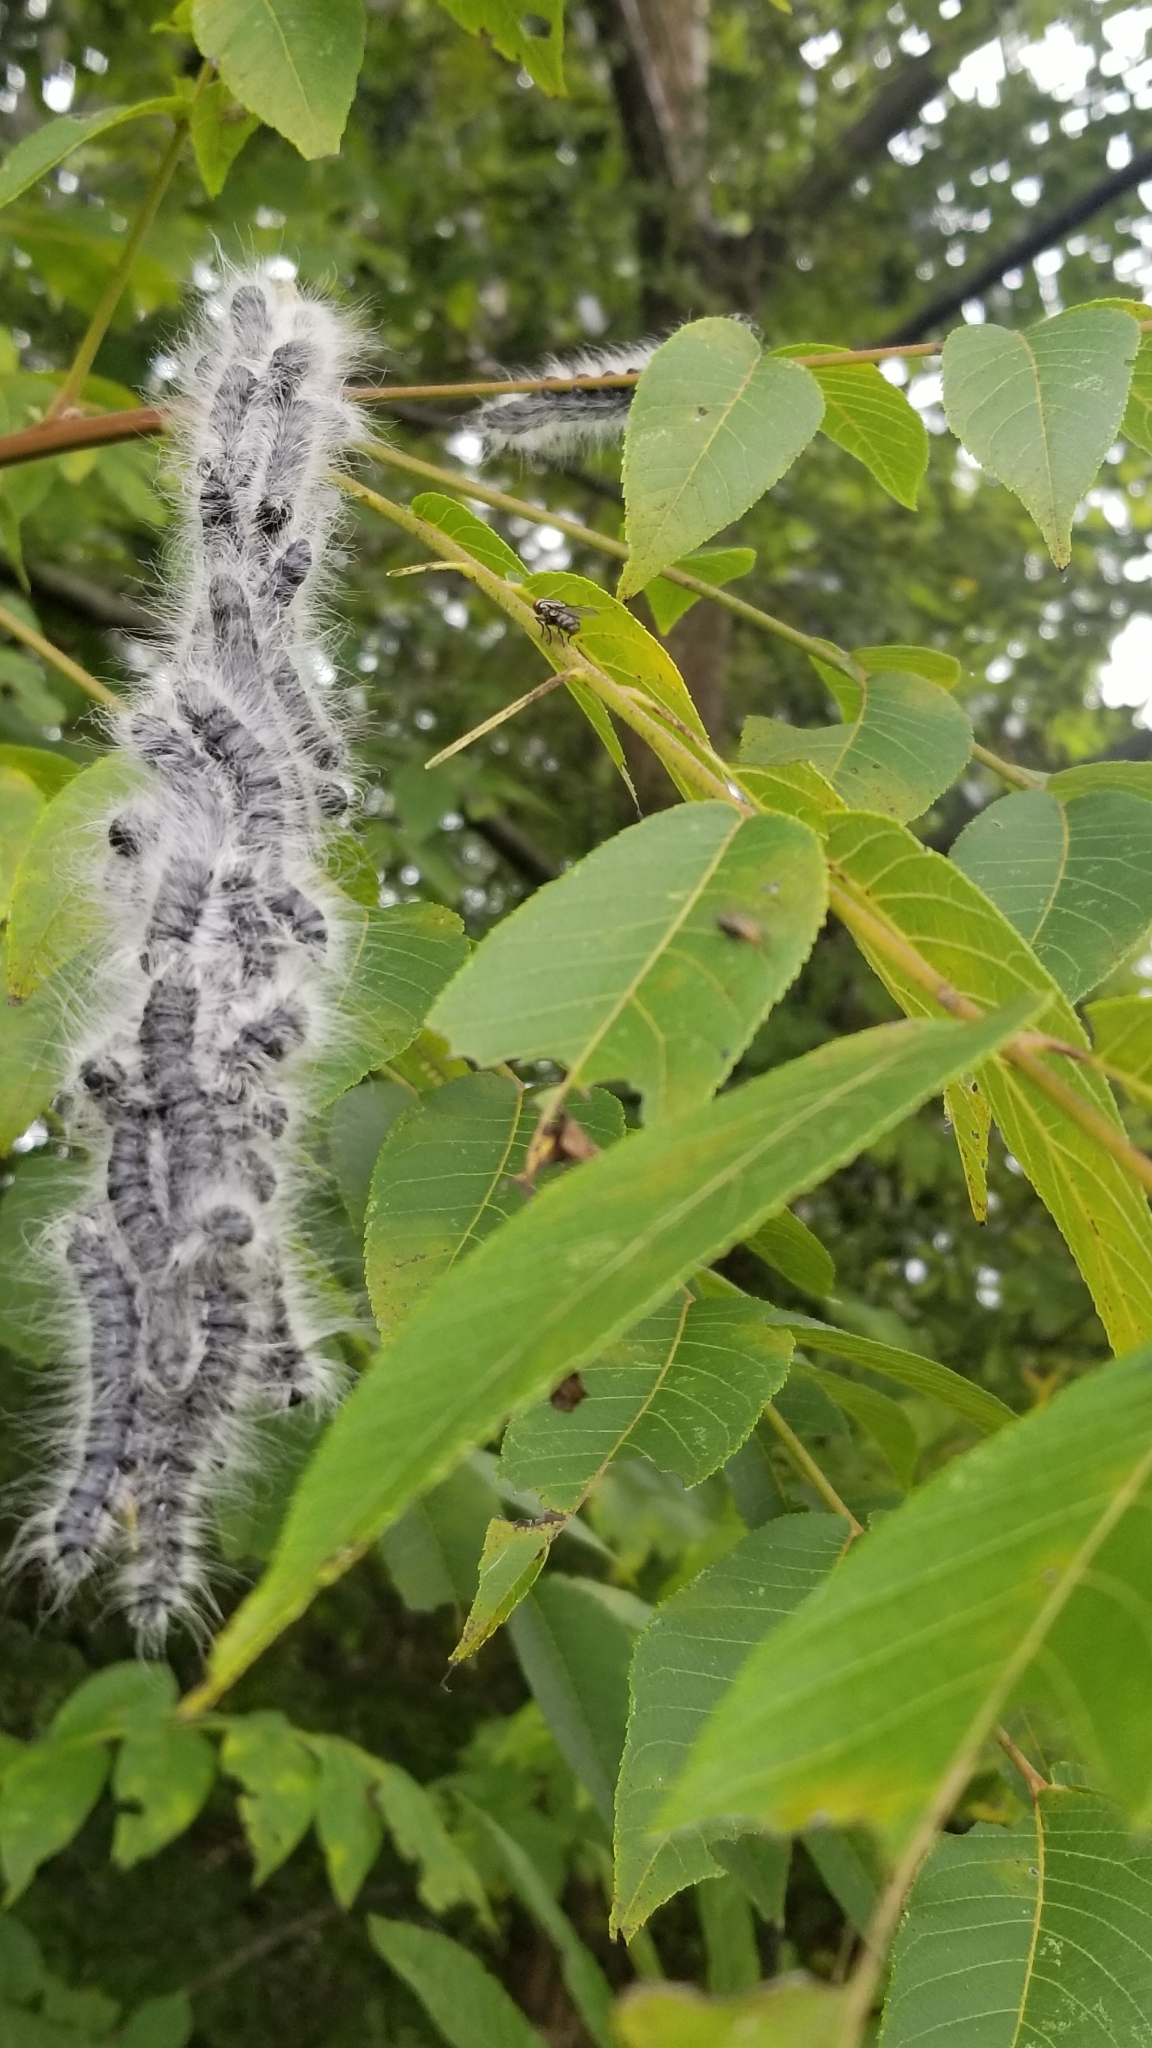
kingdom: Animalia
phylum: Arthropoda
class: Insecta
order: Lepidoptera
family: Notodontidae
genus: Datana
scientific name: Datana integerrima
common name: Walnut caterpillar
